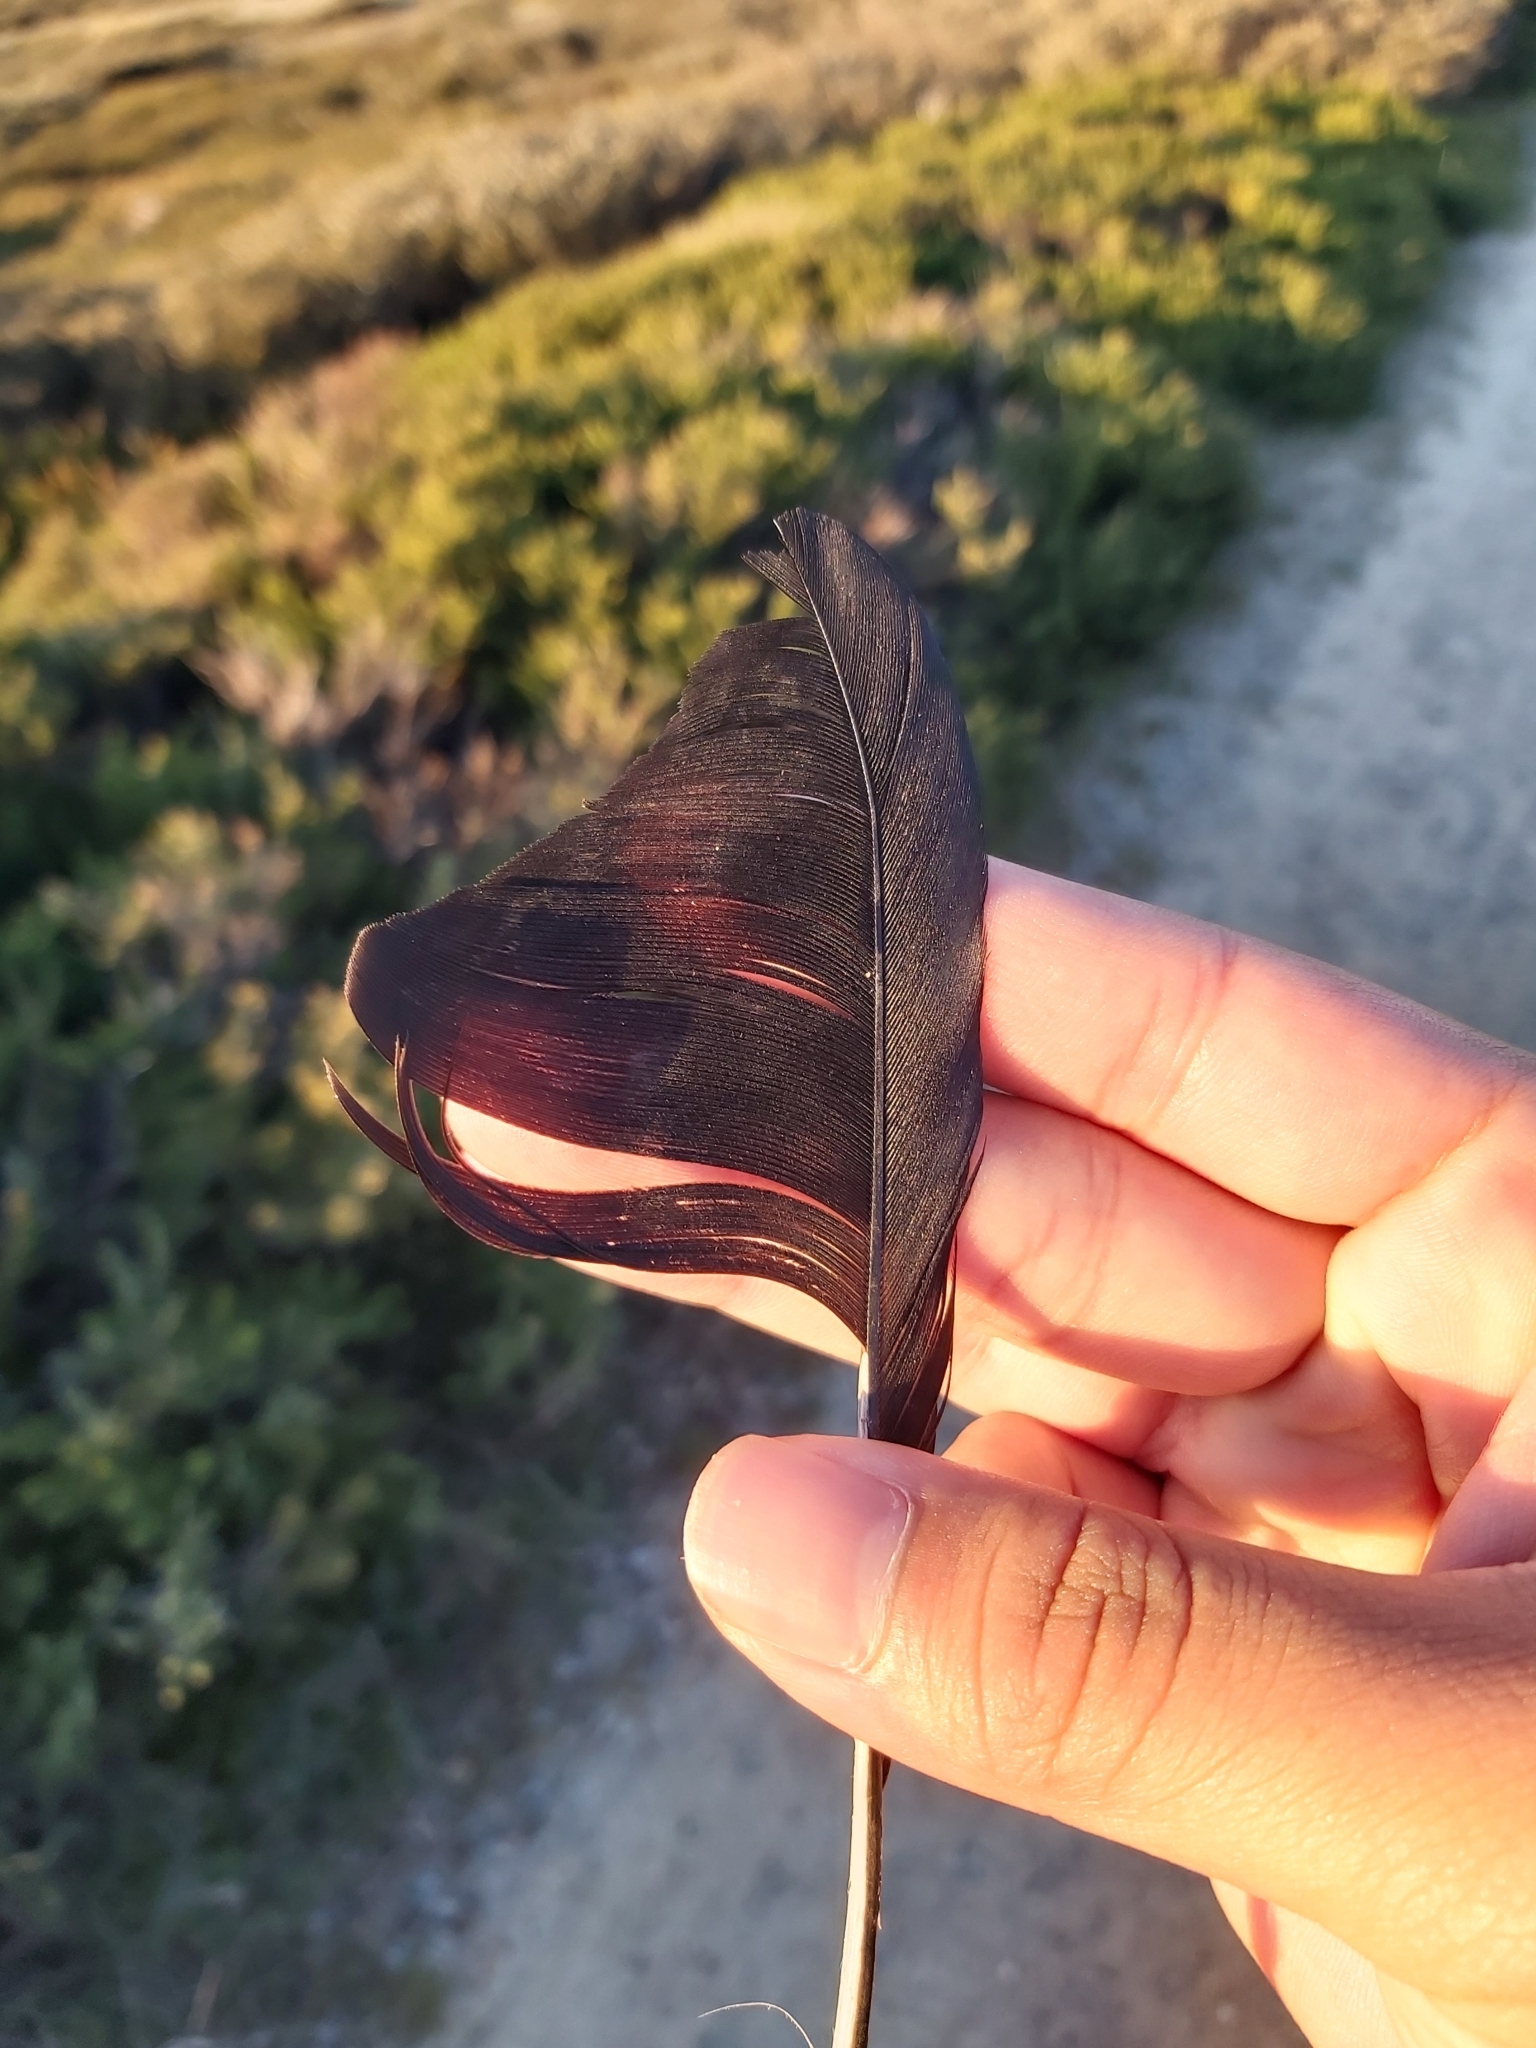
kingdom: Animalia
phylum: Chordata
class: Aves
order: Passeriformes
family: Corvidae
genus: Corvus
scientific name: Corvus
